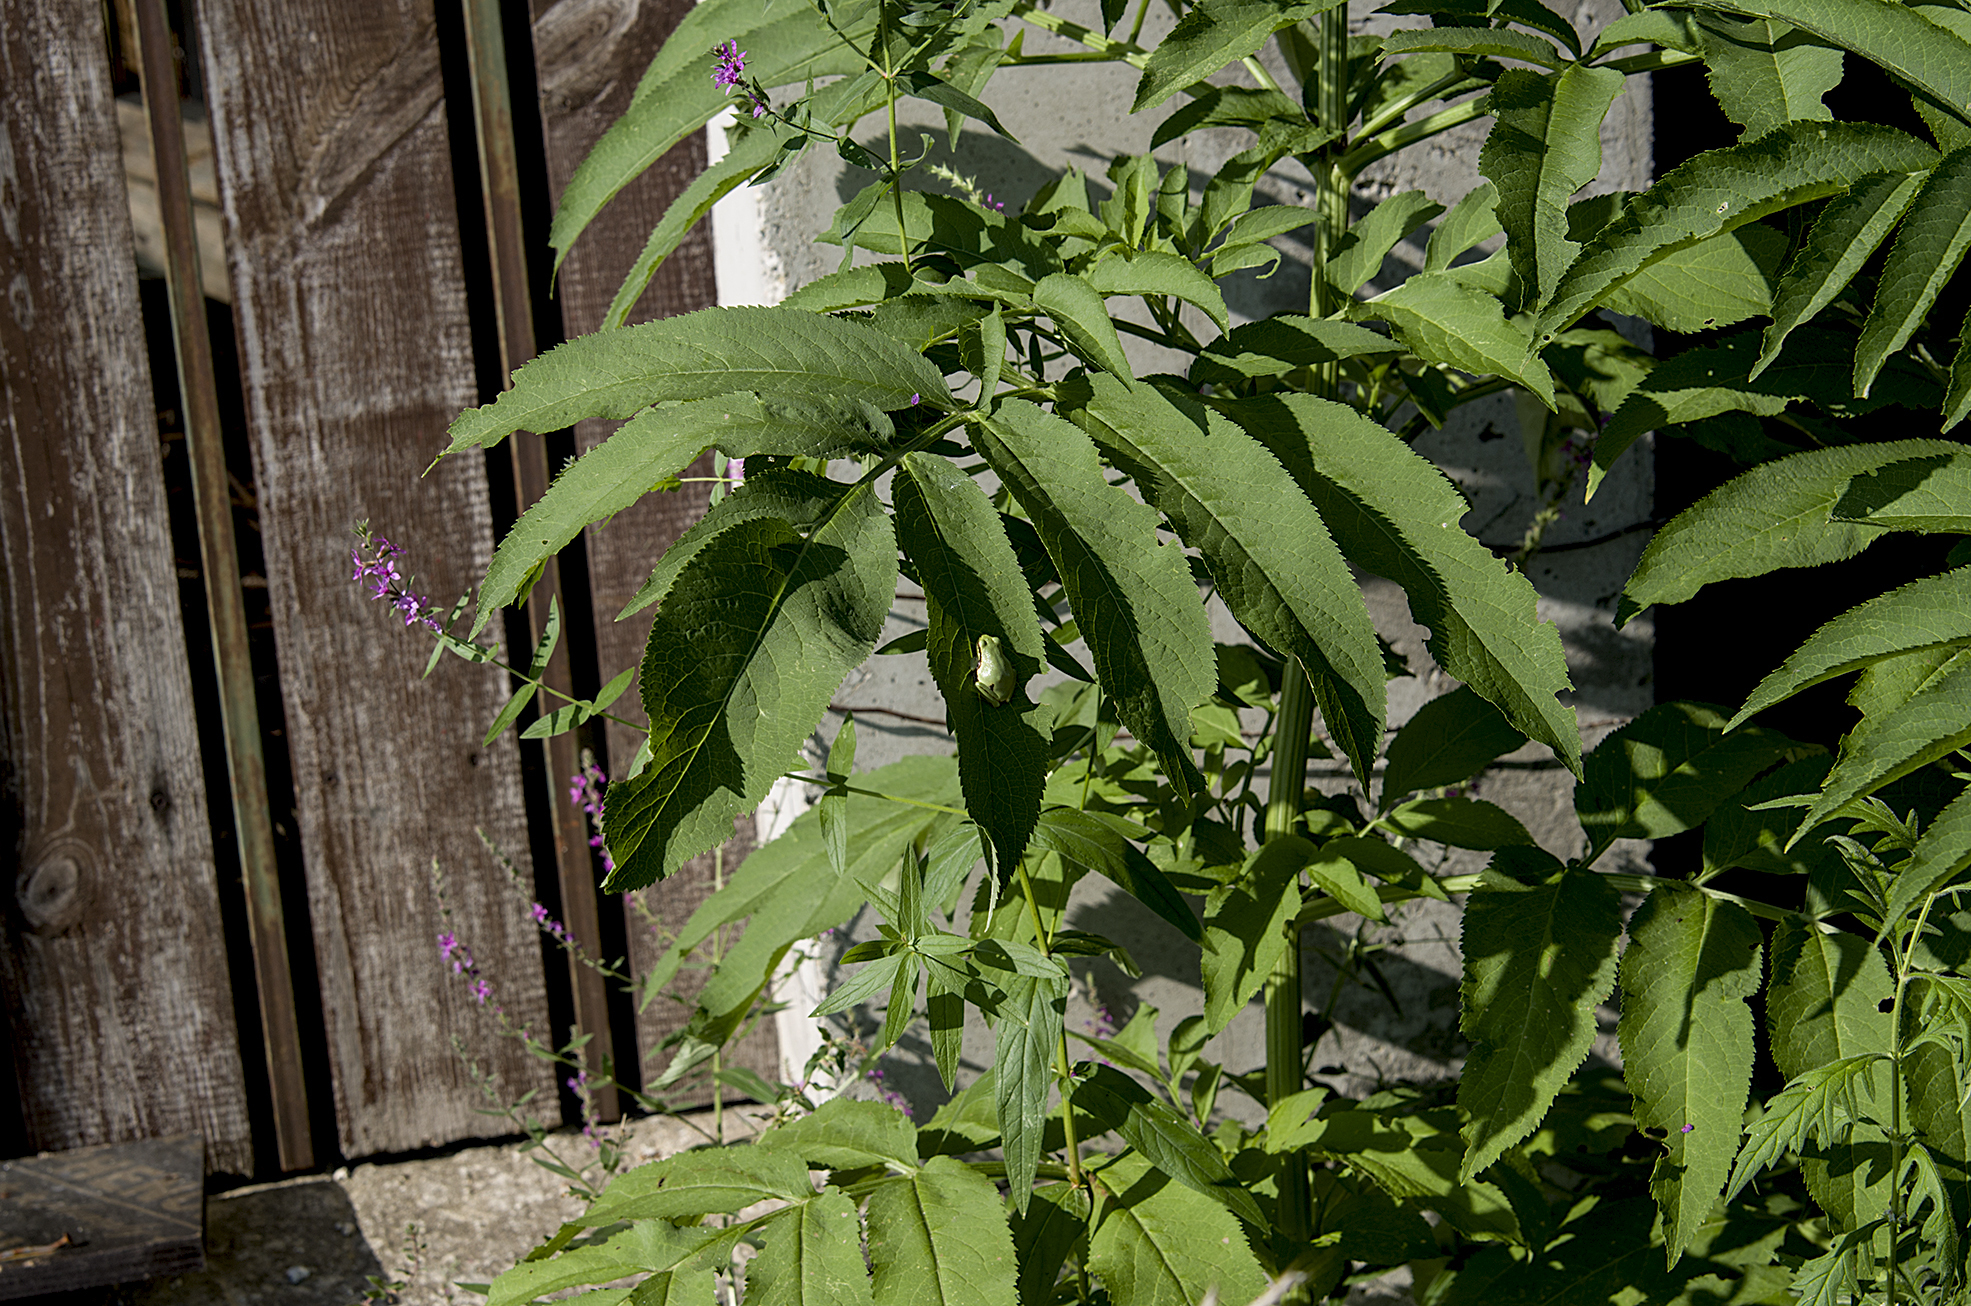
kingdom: Animalia
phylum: Chordata
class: Amphibia
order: Anura
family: Hylidae
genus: Hyla
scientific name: Hyla orientalis
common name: Caucasian treefrog
